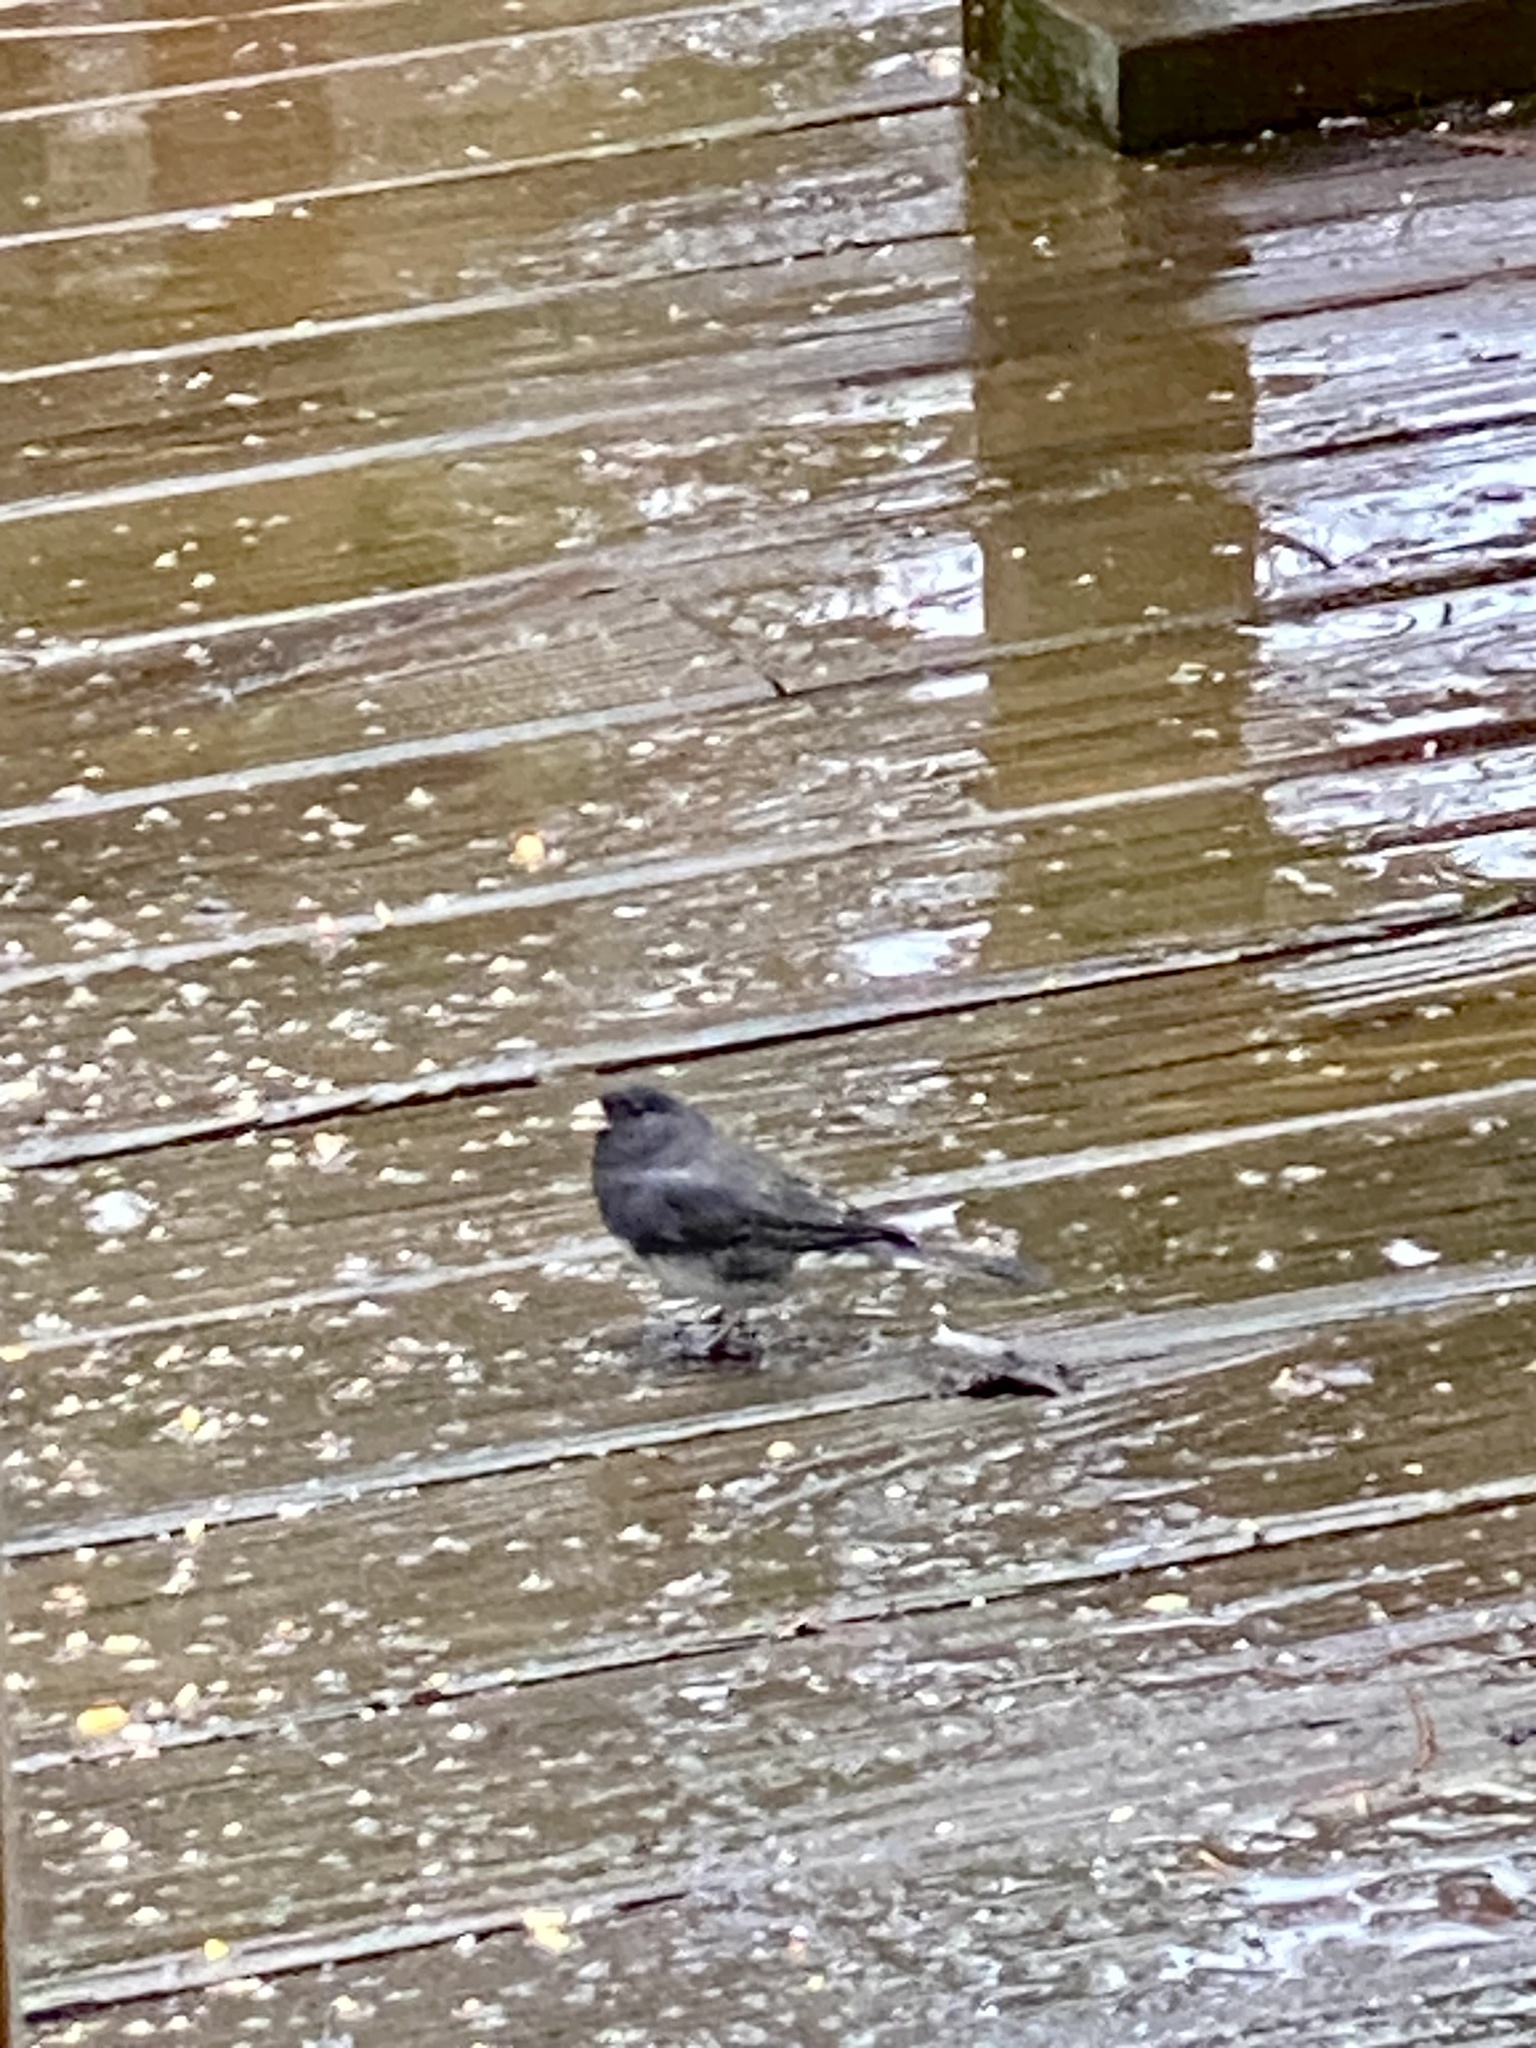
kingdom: Animalia
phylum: Chordata
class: Aves
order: Passeriformes
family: Passerellidae
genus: Junco
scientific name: Junco hyemalis
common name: Dark-eyed junco
